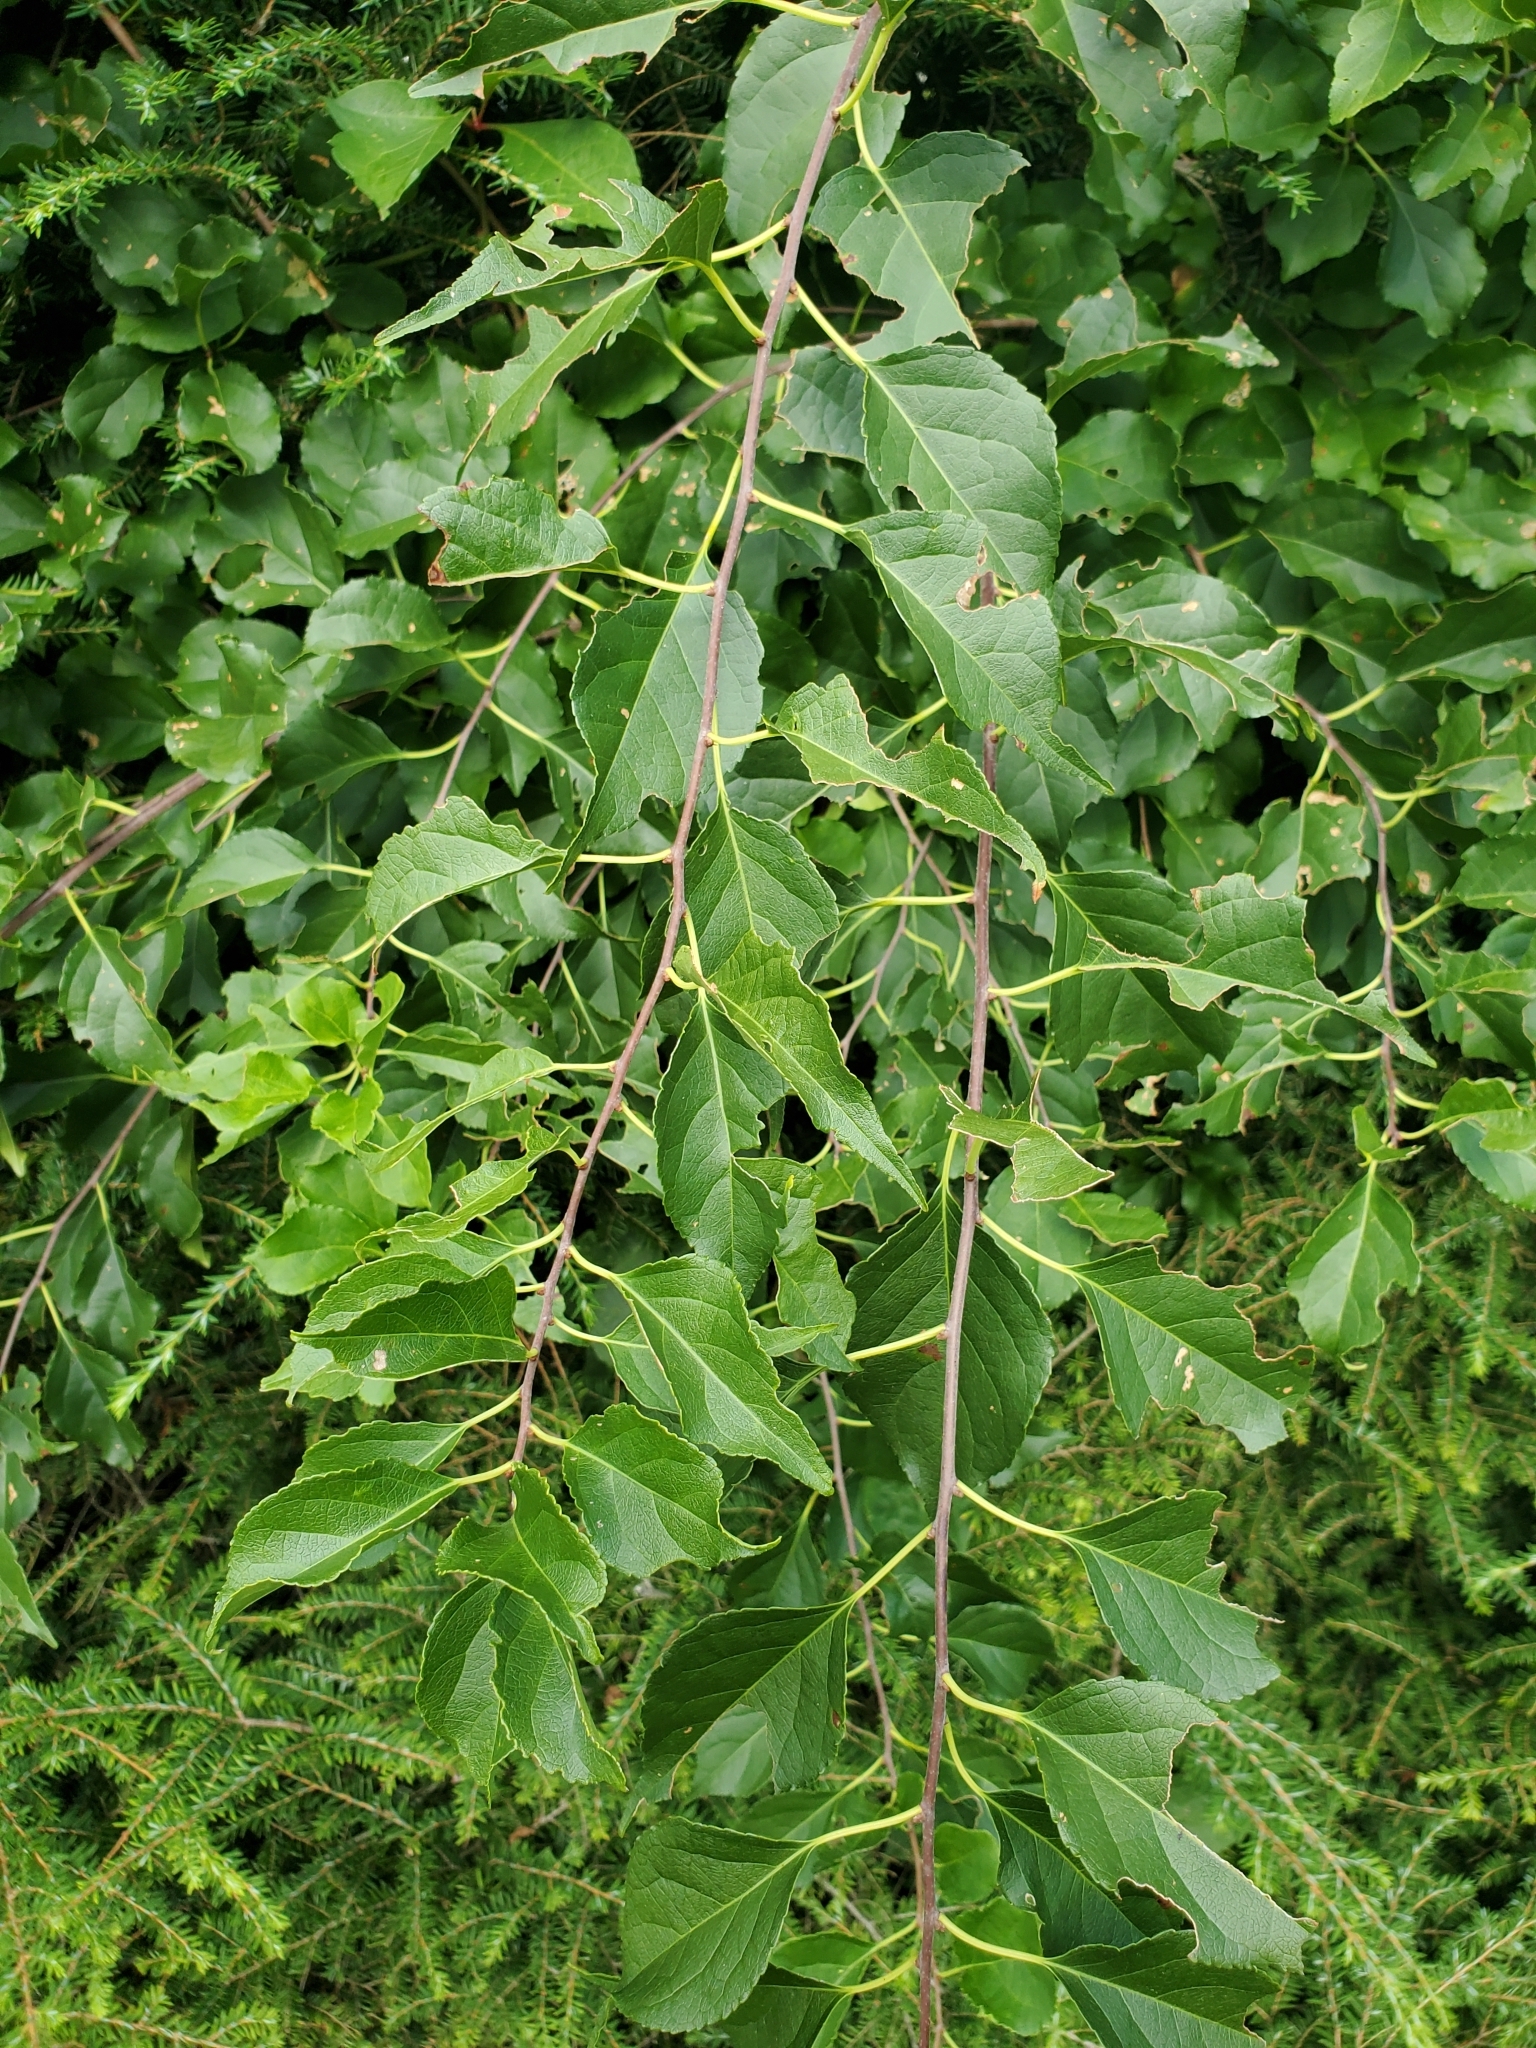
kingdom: Plantae
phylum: Tracheophyta
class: Magnoliopsida
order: Celastrales
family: Celastraceae
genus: Celastrus
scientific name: Celastrus orbiculatus
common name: Oriental bittersweet
